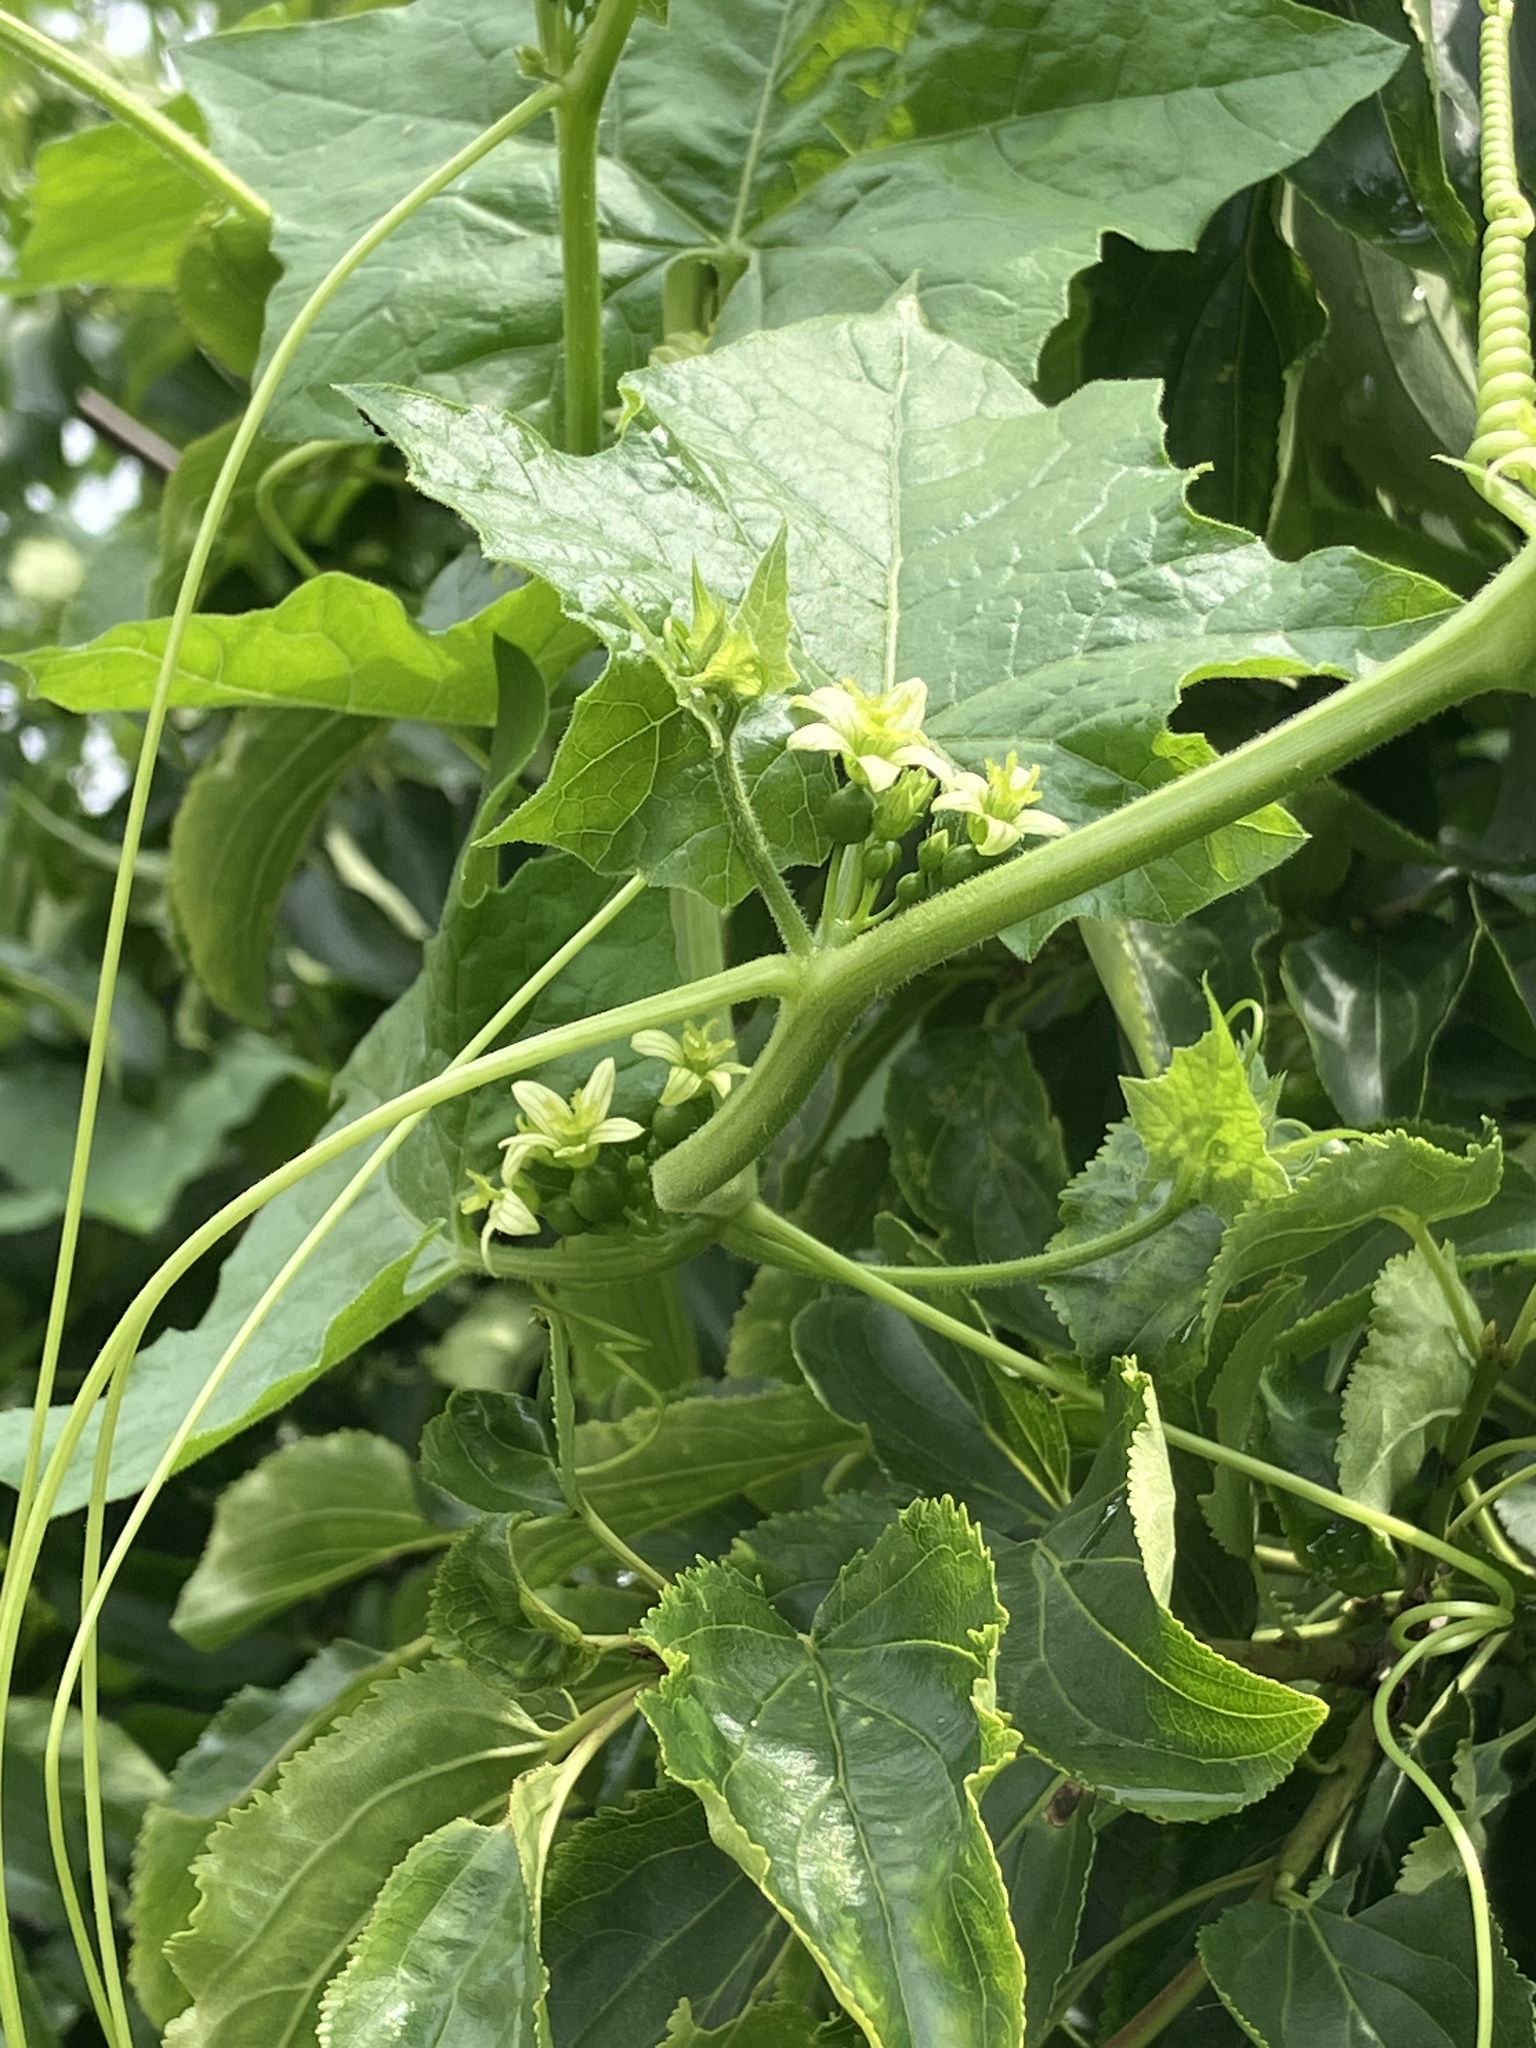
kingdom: Plantae
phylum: Tracheophyta
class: Magnoliopsida
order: Cucurbitales
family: Cucurbitaceae
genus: Bryonia
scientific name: Bryonia dioica
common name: White bryony
